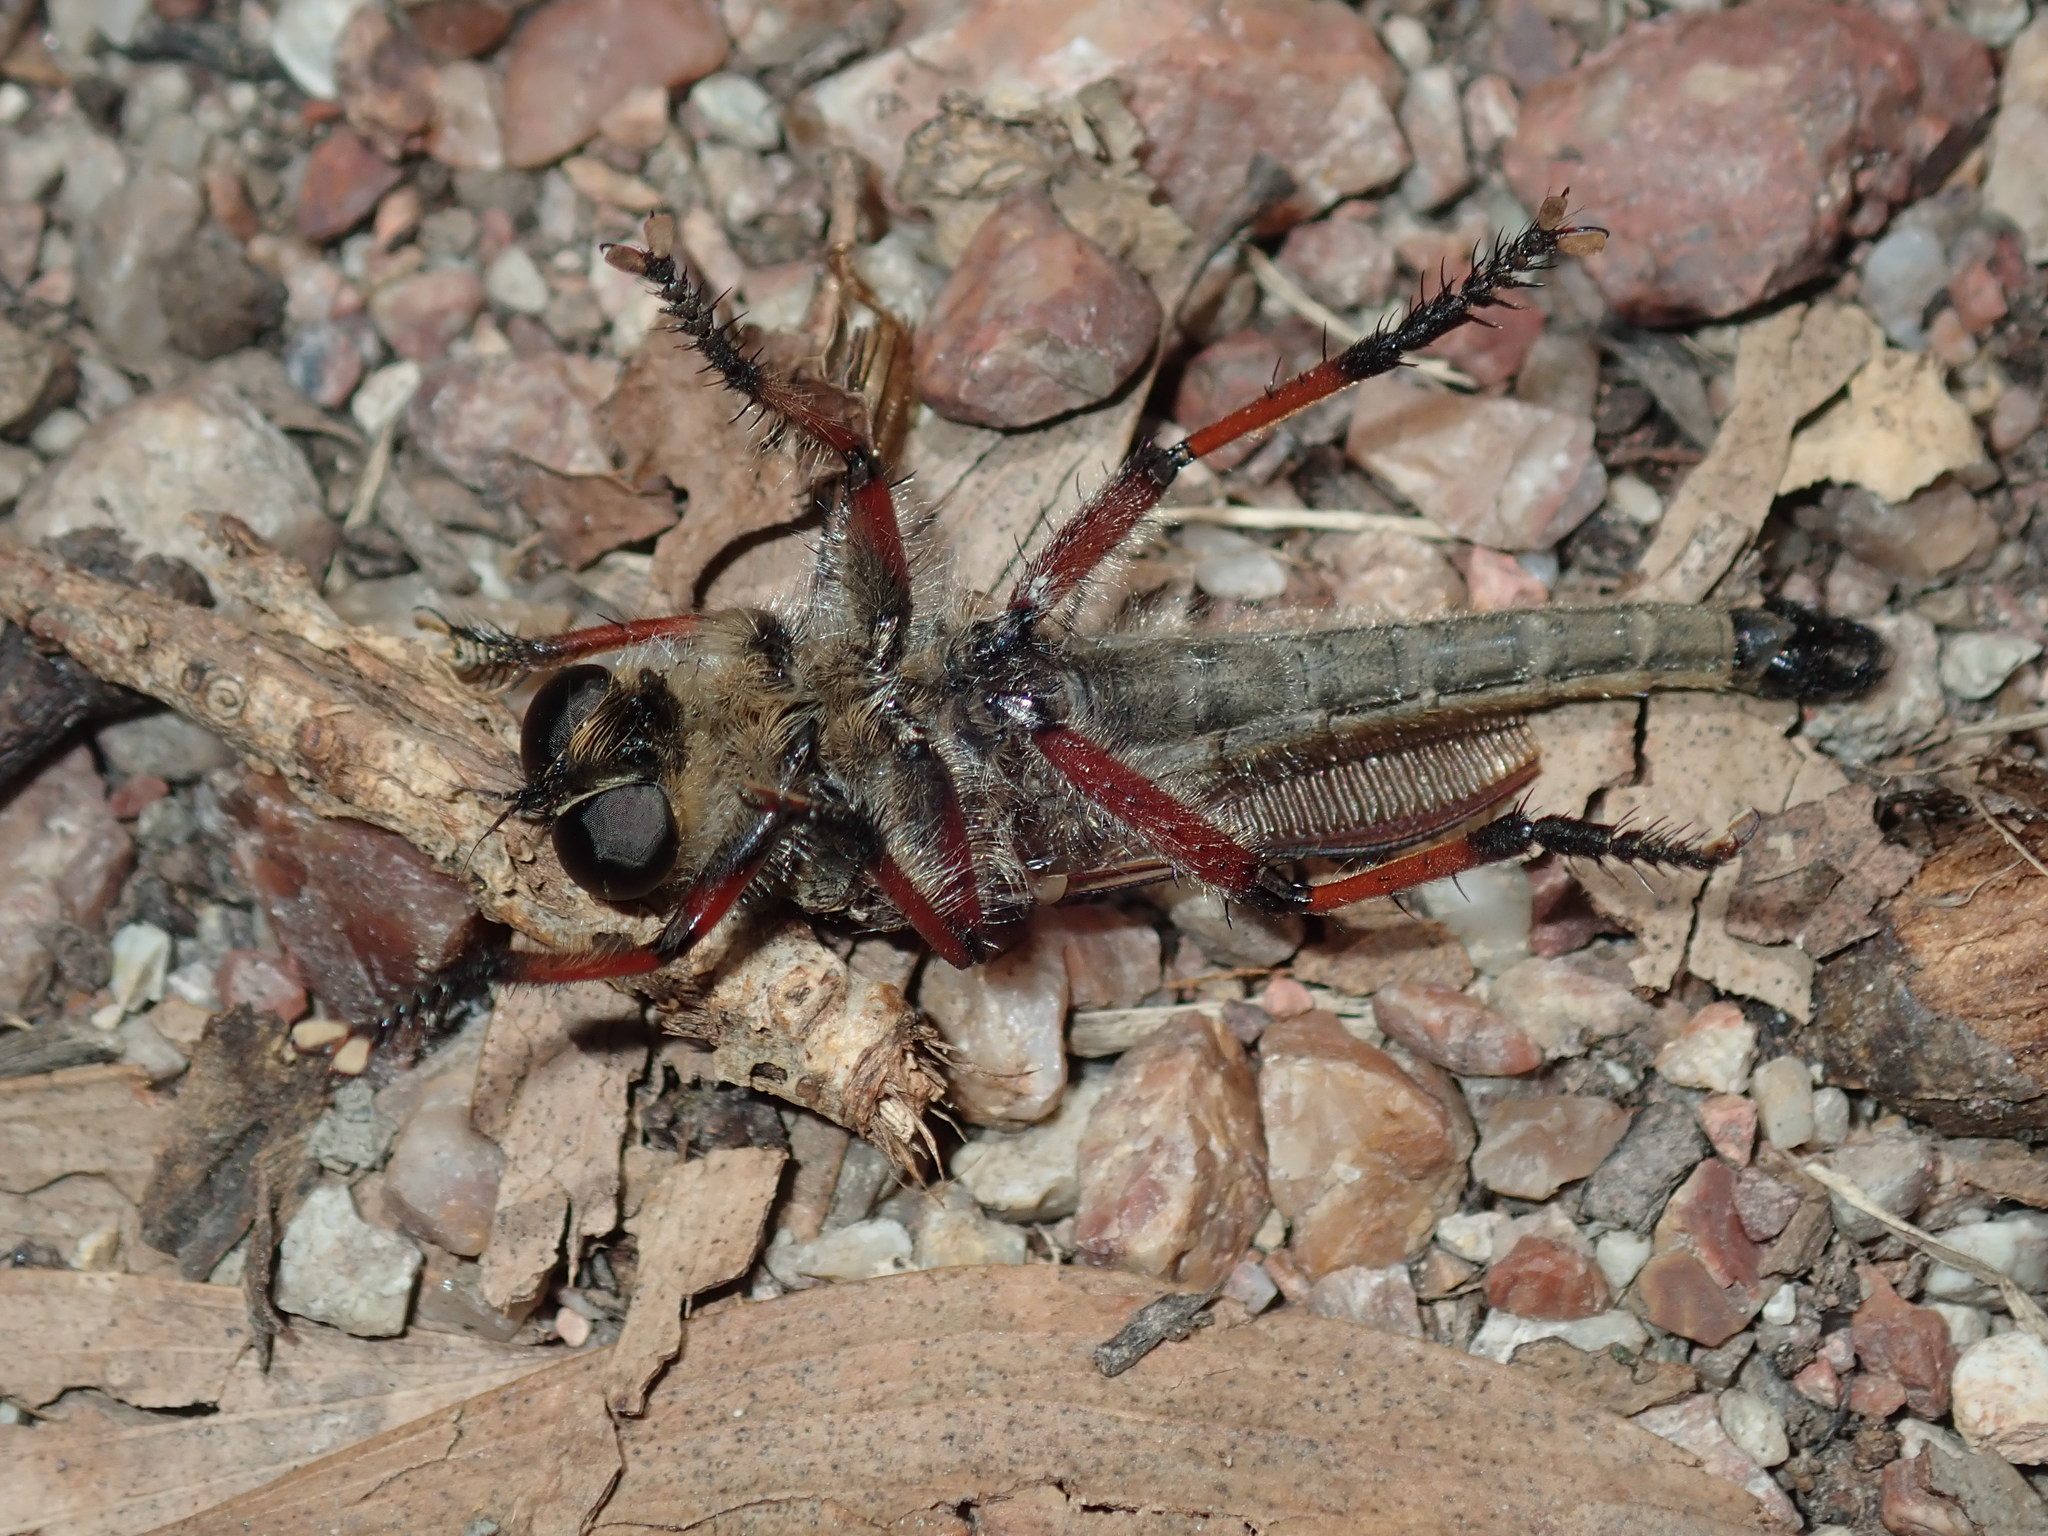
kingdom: Animalia
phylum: Arthropoda
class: Insecta
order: Diptera
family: Asilidae
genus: Neoaratus
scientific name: Neoaratus hercules
